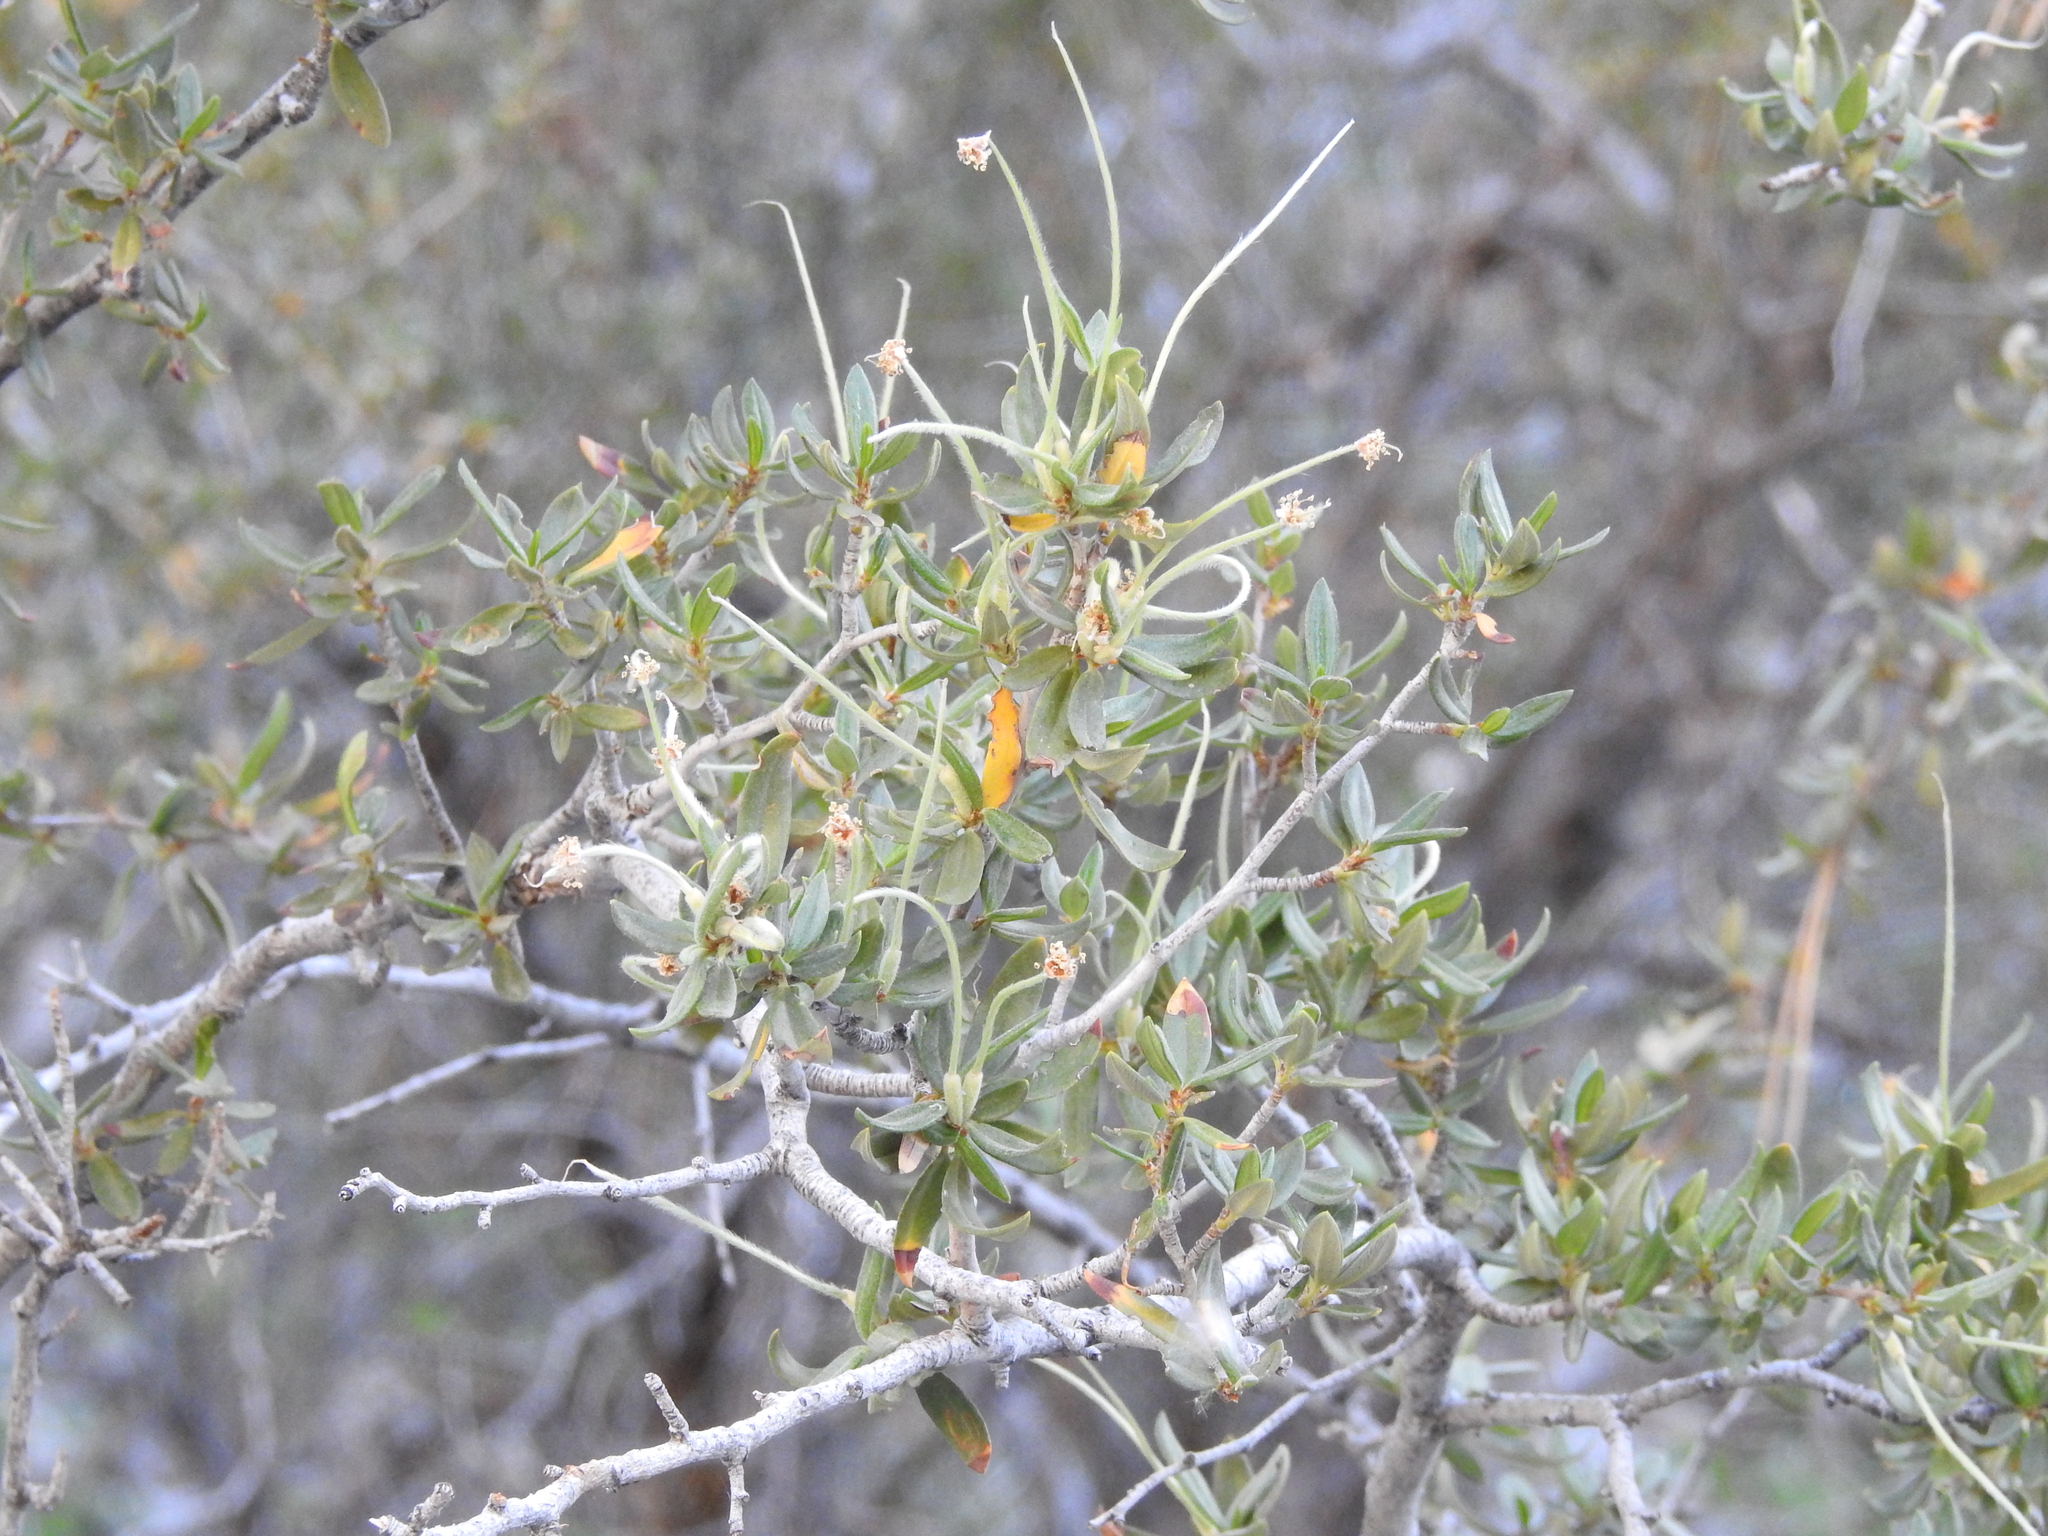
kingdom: Plantae
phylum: Tracheophyta
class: Magnoliopsida
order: Rosales
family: Rosaceae
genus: Cercocarpus
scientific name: Cercocarpus ledifolius
